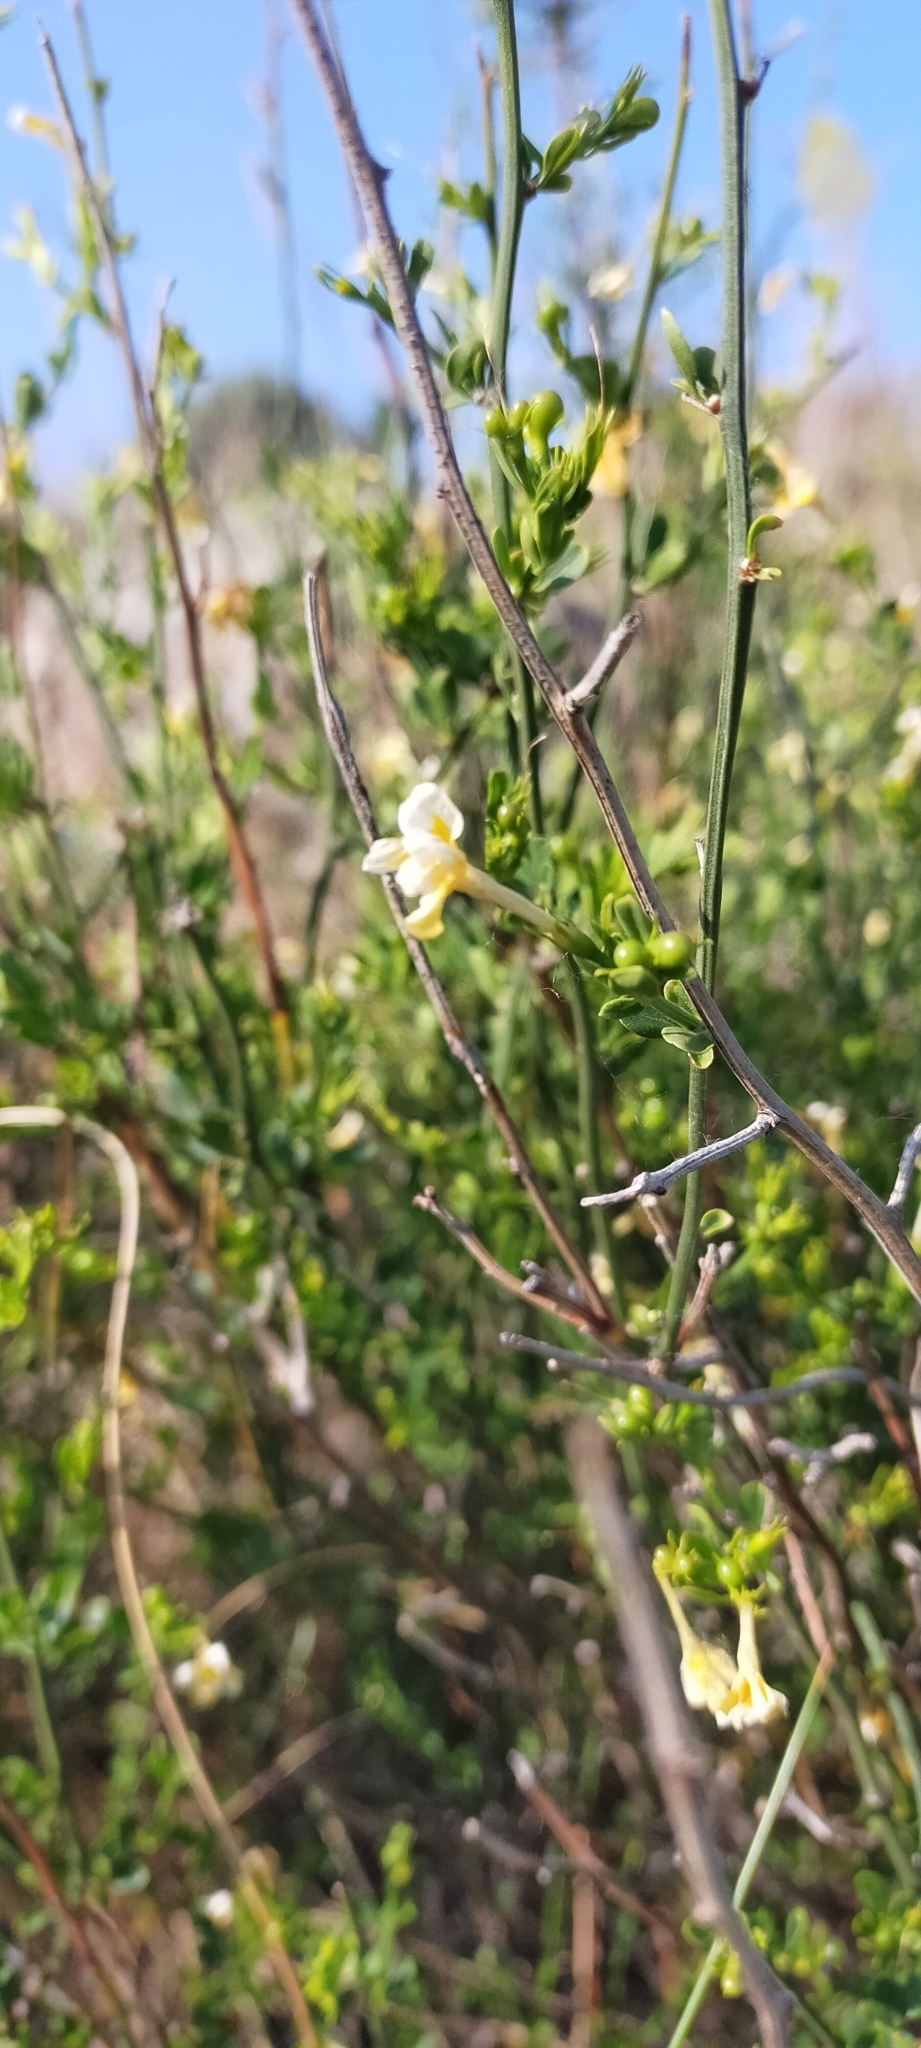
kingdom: Plantae
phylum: Tracheophyta
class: Magnoliopsida
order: Lamiales
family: Oleaceae
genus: Chrysojasminum
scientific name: Chrysojasminum fruticans
